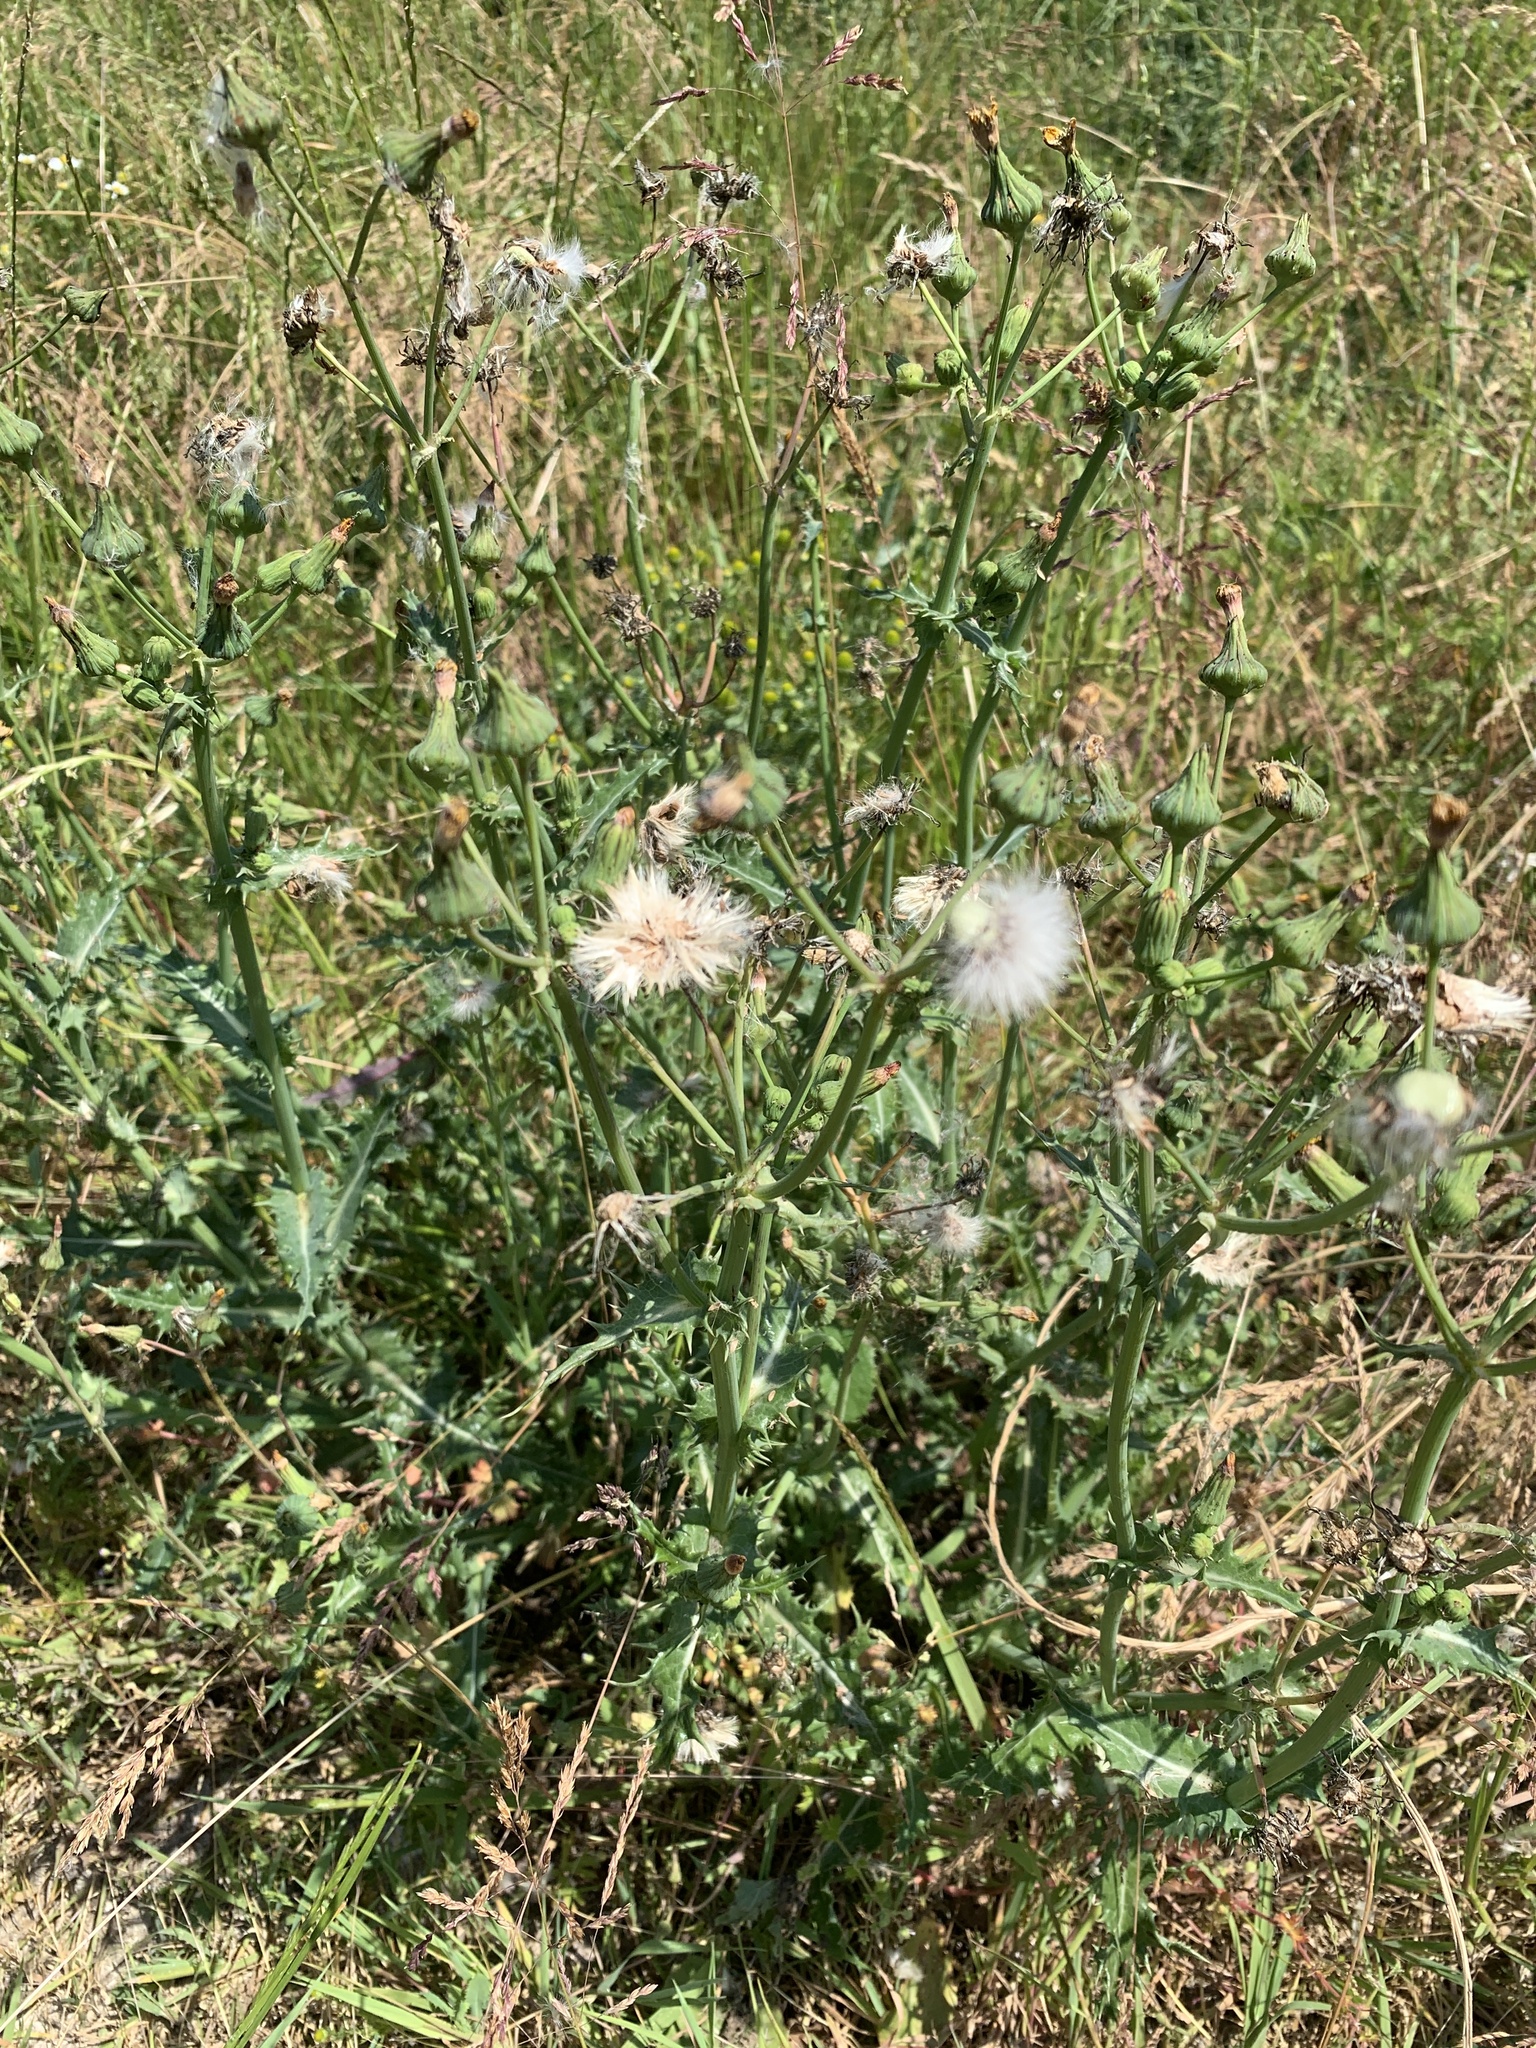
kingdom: Plantae
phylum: Tracheophyta
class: Magnoliopsida
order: Asterales
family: Asteraceae
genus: Sonchus
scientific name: Sonchus asper
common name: Prickly sow-thistle
